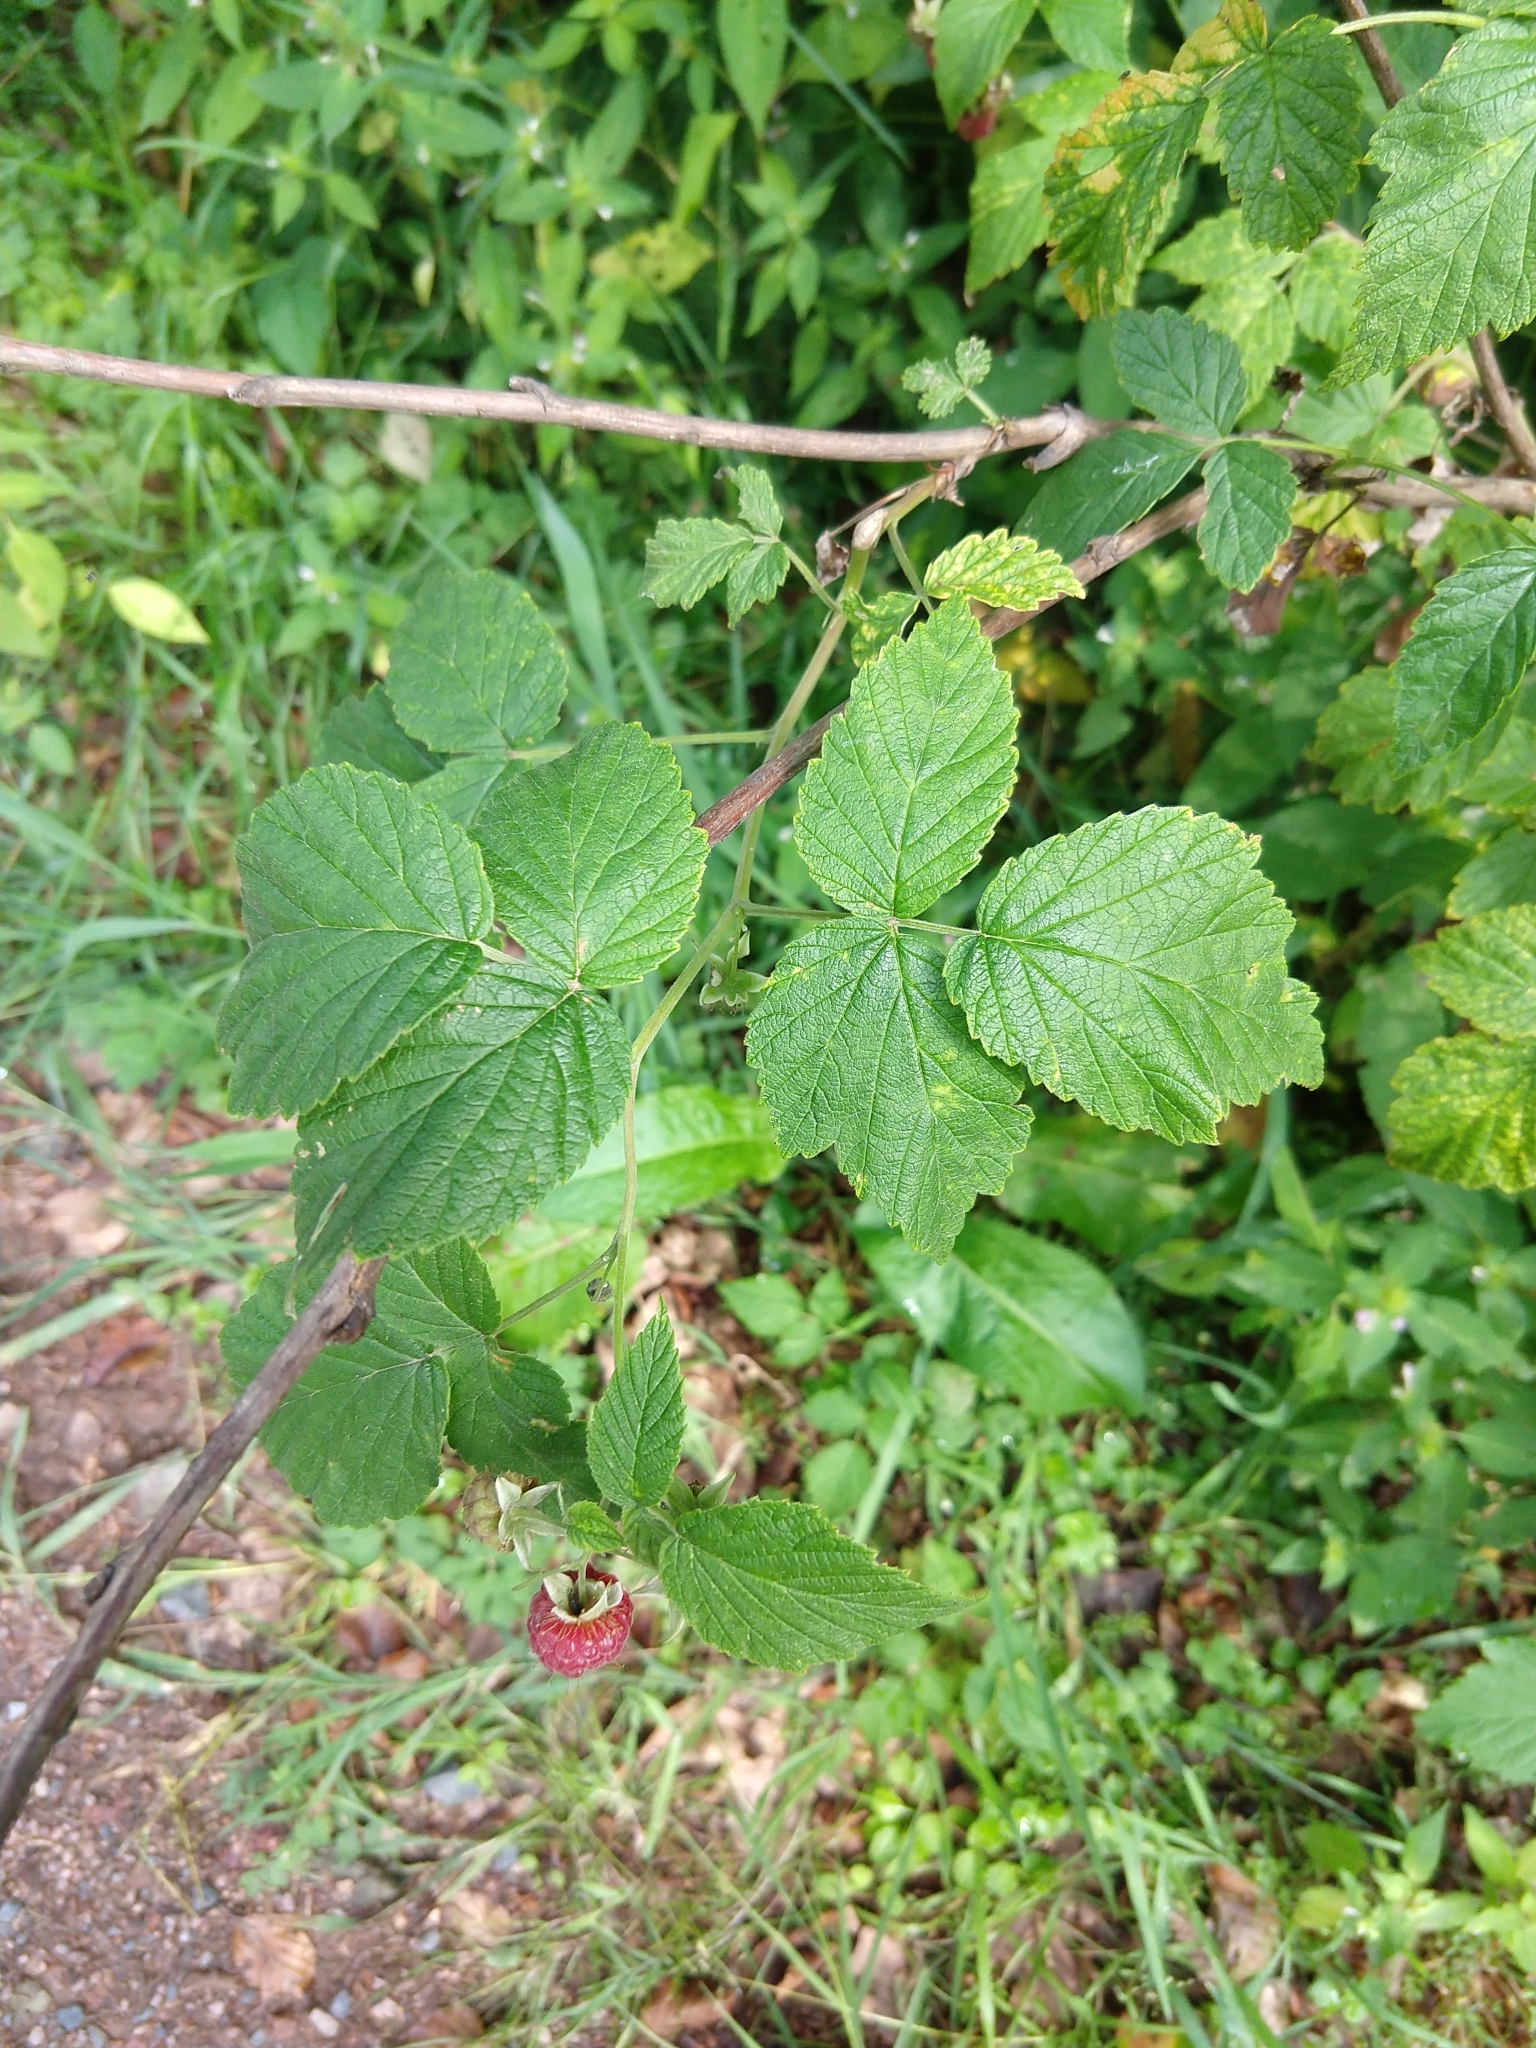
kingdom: Plantae
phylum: Tracheophyta
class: Magnoliopsida
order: Rosales
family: Rosaceae
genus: Rubus
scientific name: Rubus idaeus
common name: Raspberry
